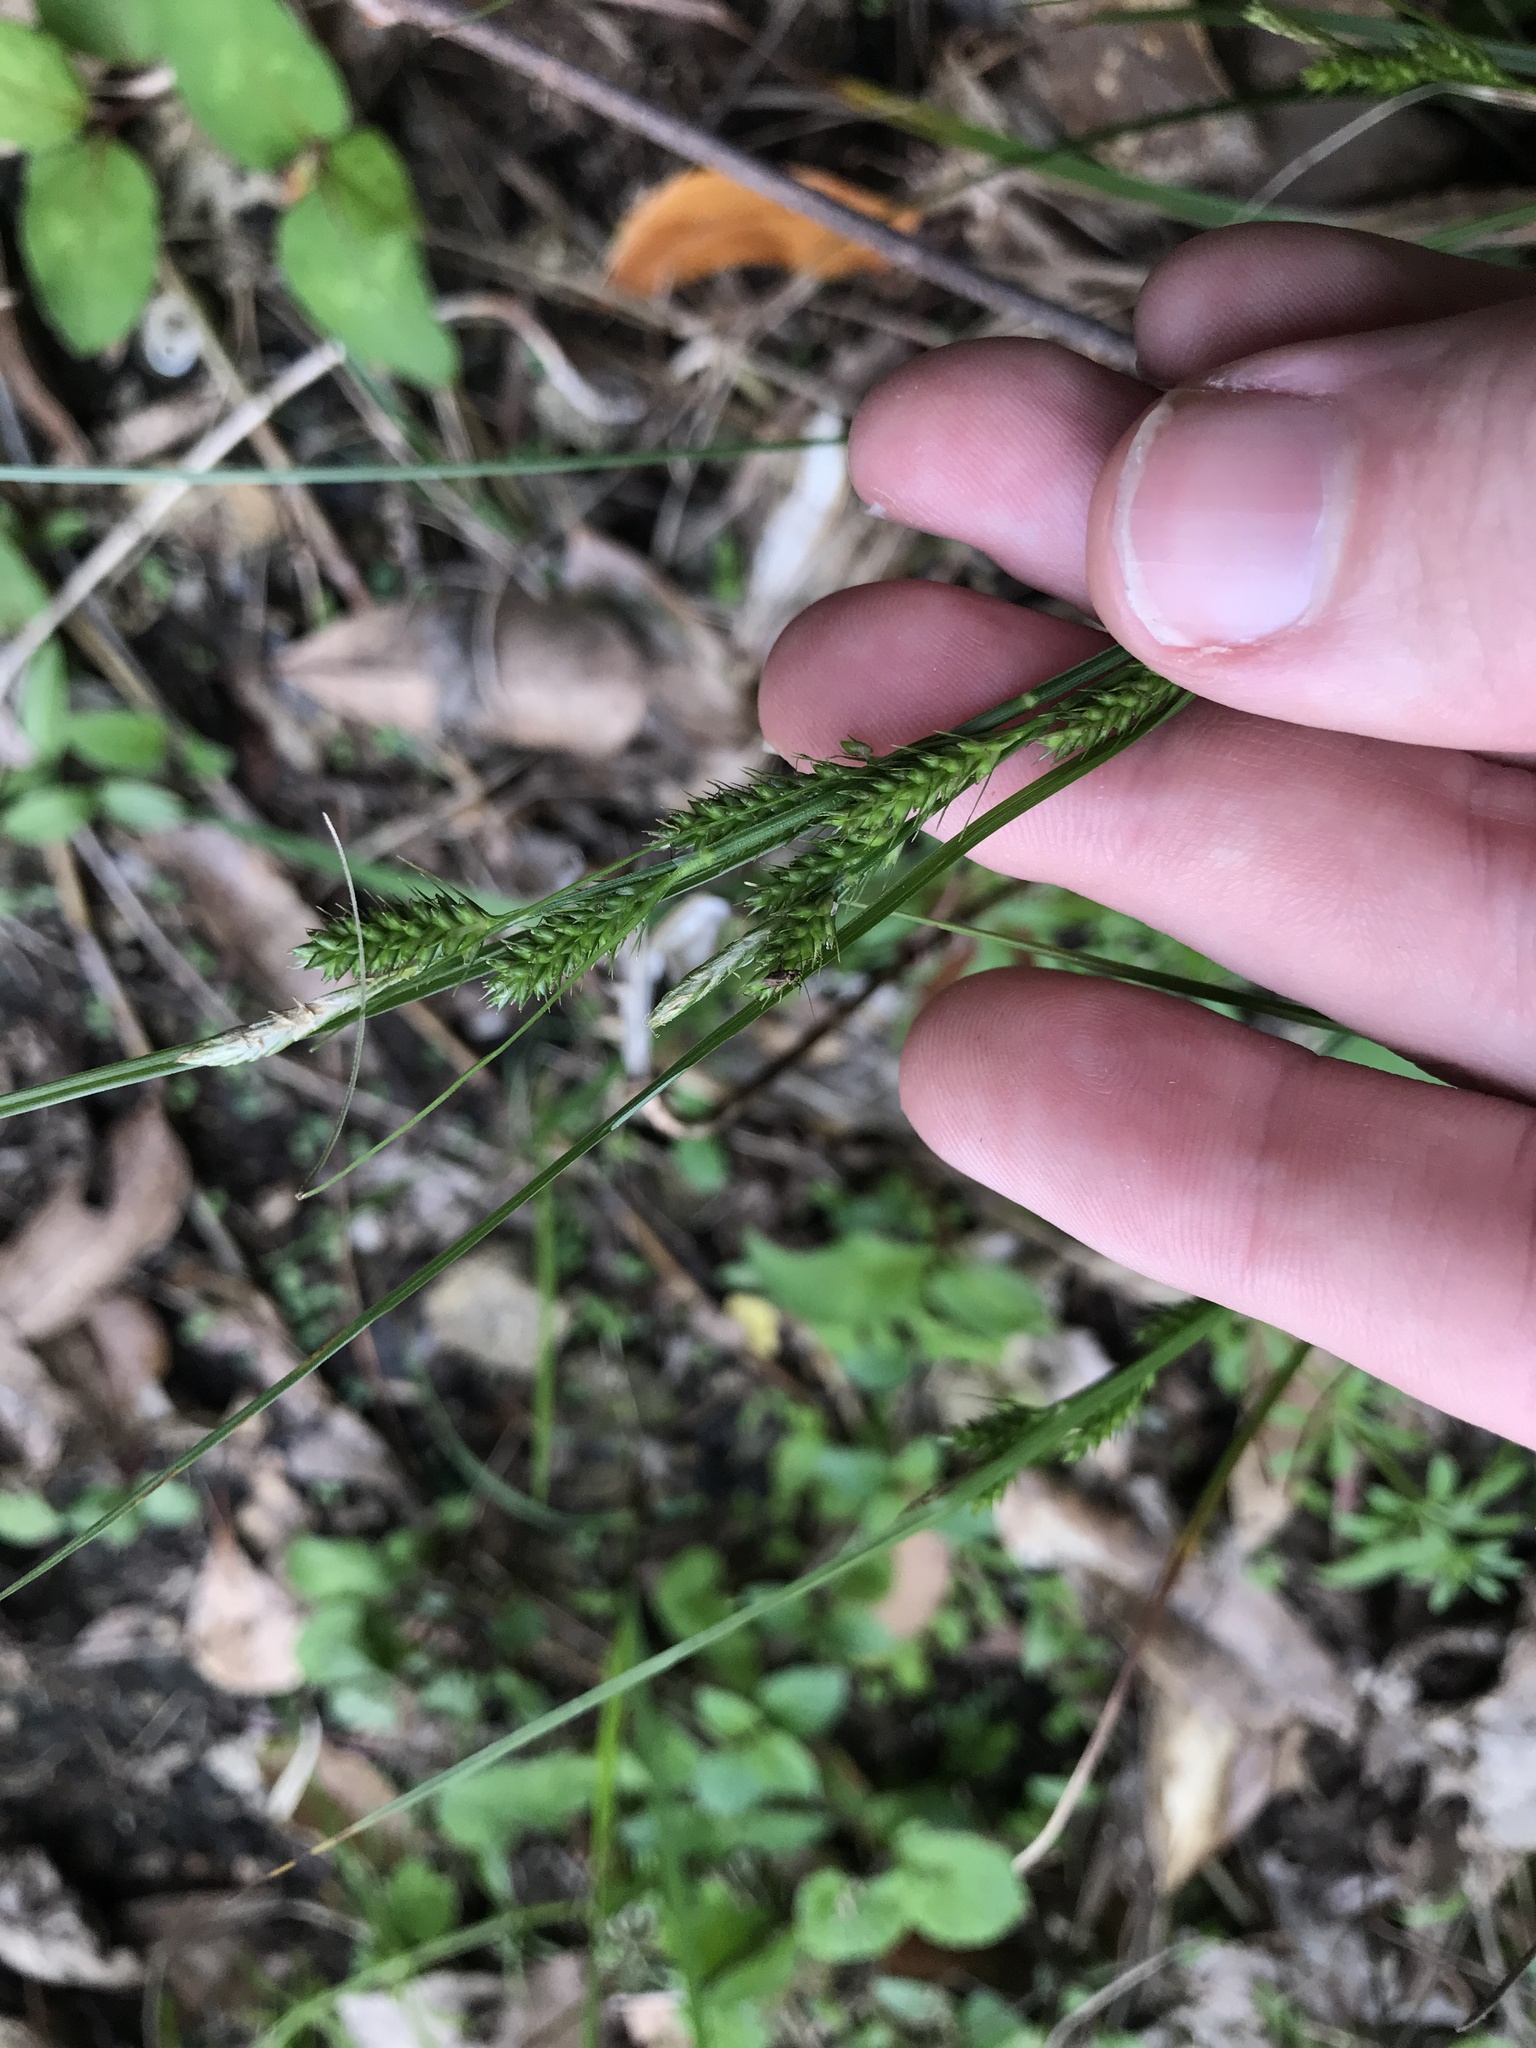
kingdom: Plantae
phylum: Tracheophyta
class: Liliopsida
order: Poales
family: Cyperaceae
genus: Carex
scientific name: Carex leucochlora
